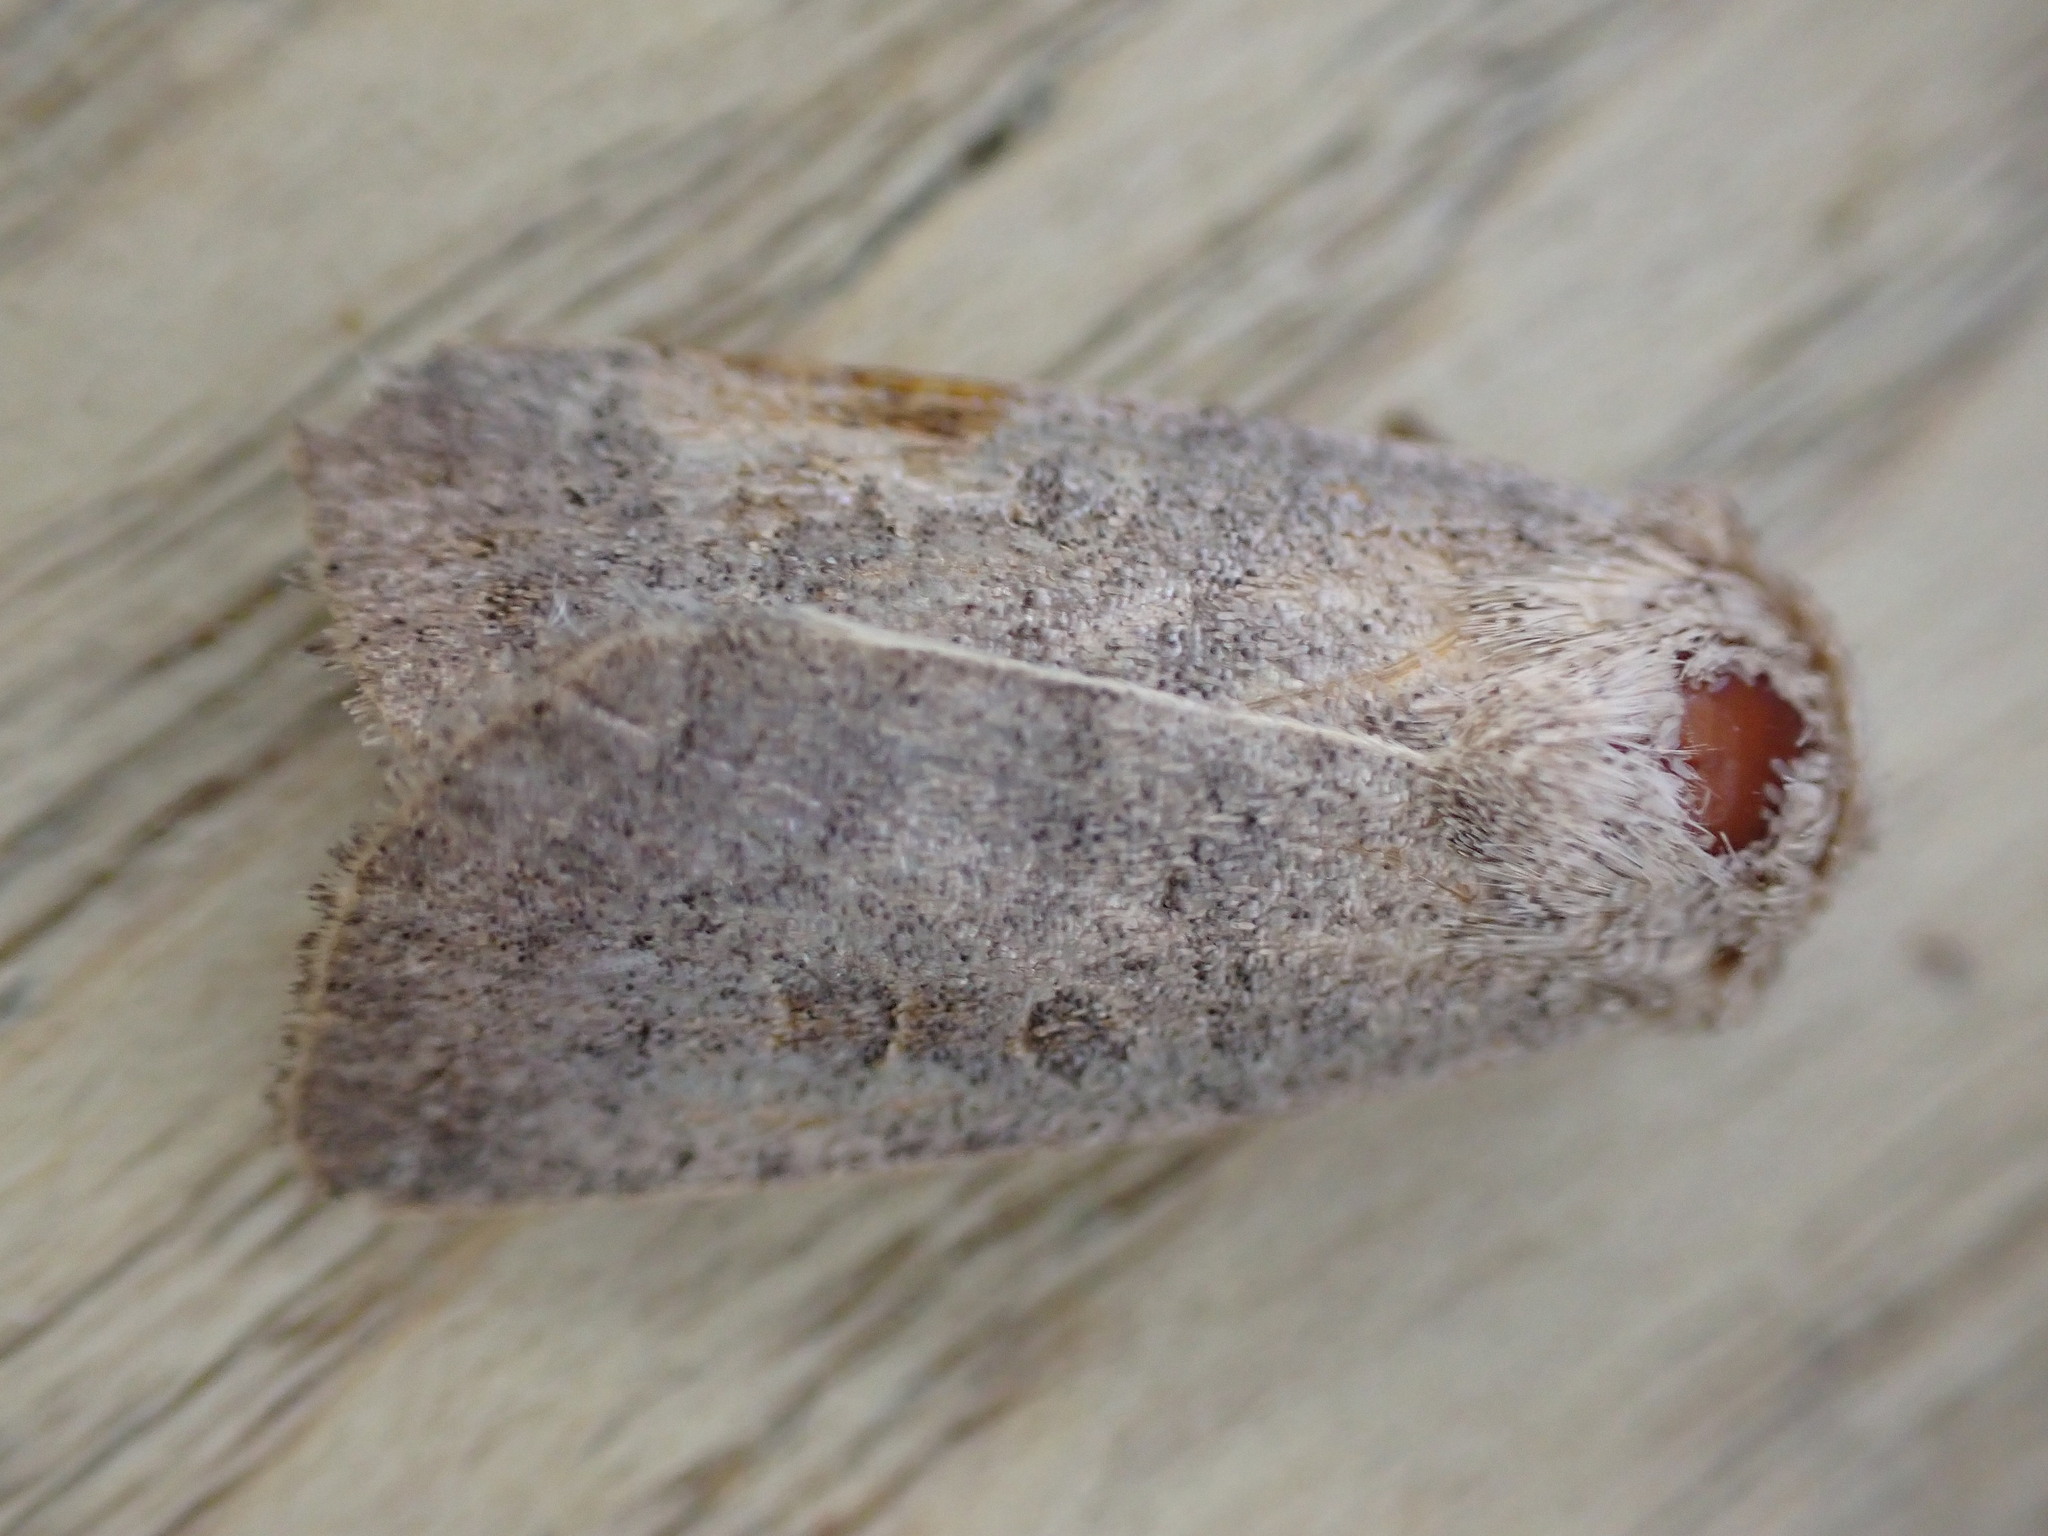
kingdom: Animalia
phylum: Arthropoda
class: Insecta
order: Lepidoptera
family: Noctuidae
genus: Hoplodrina
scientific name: Hoplodrina ambigua
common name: Vine's rustic
